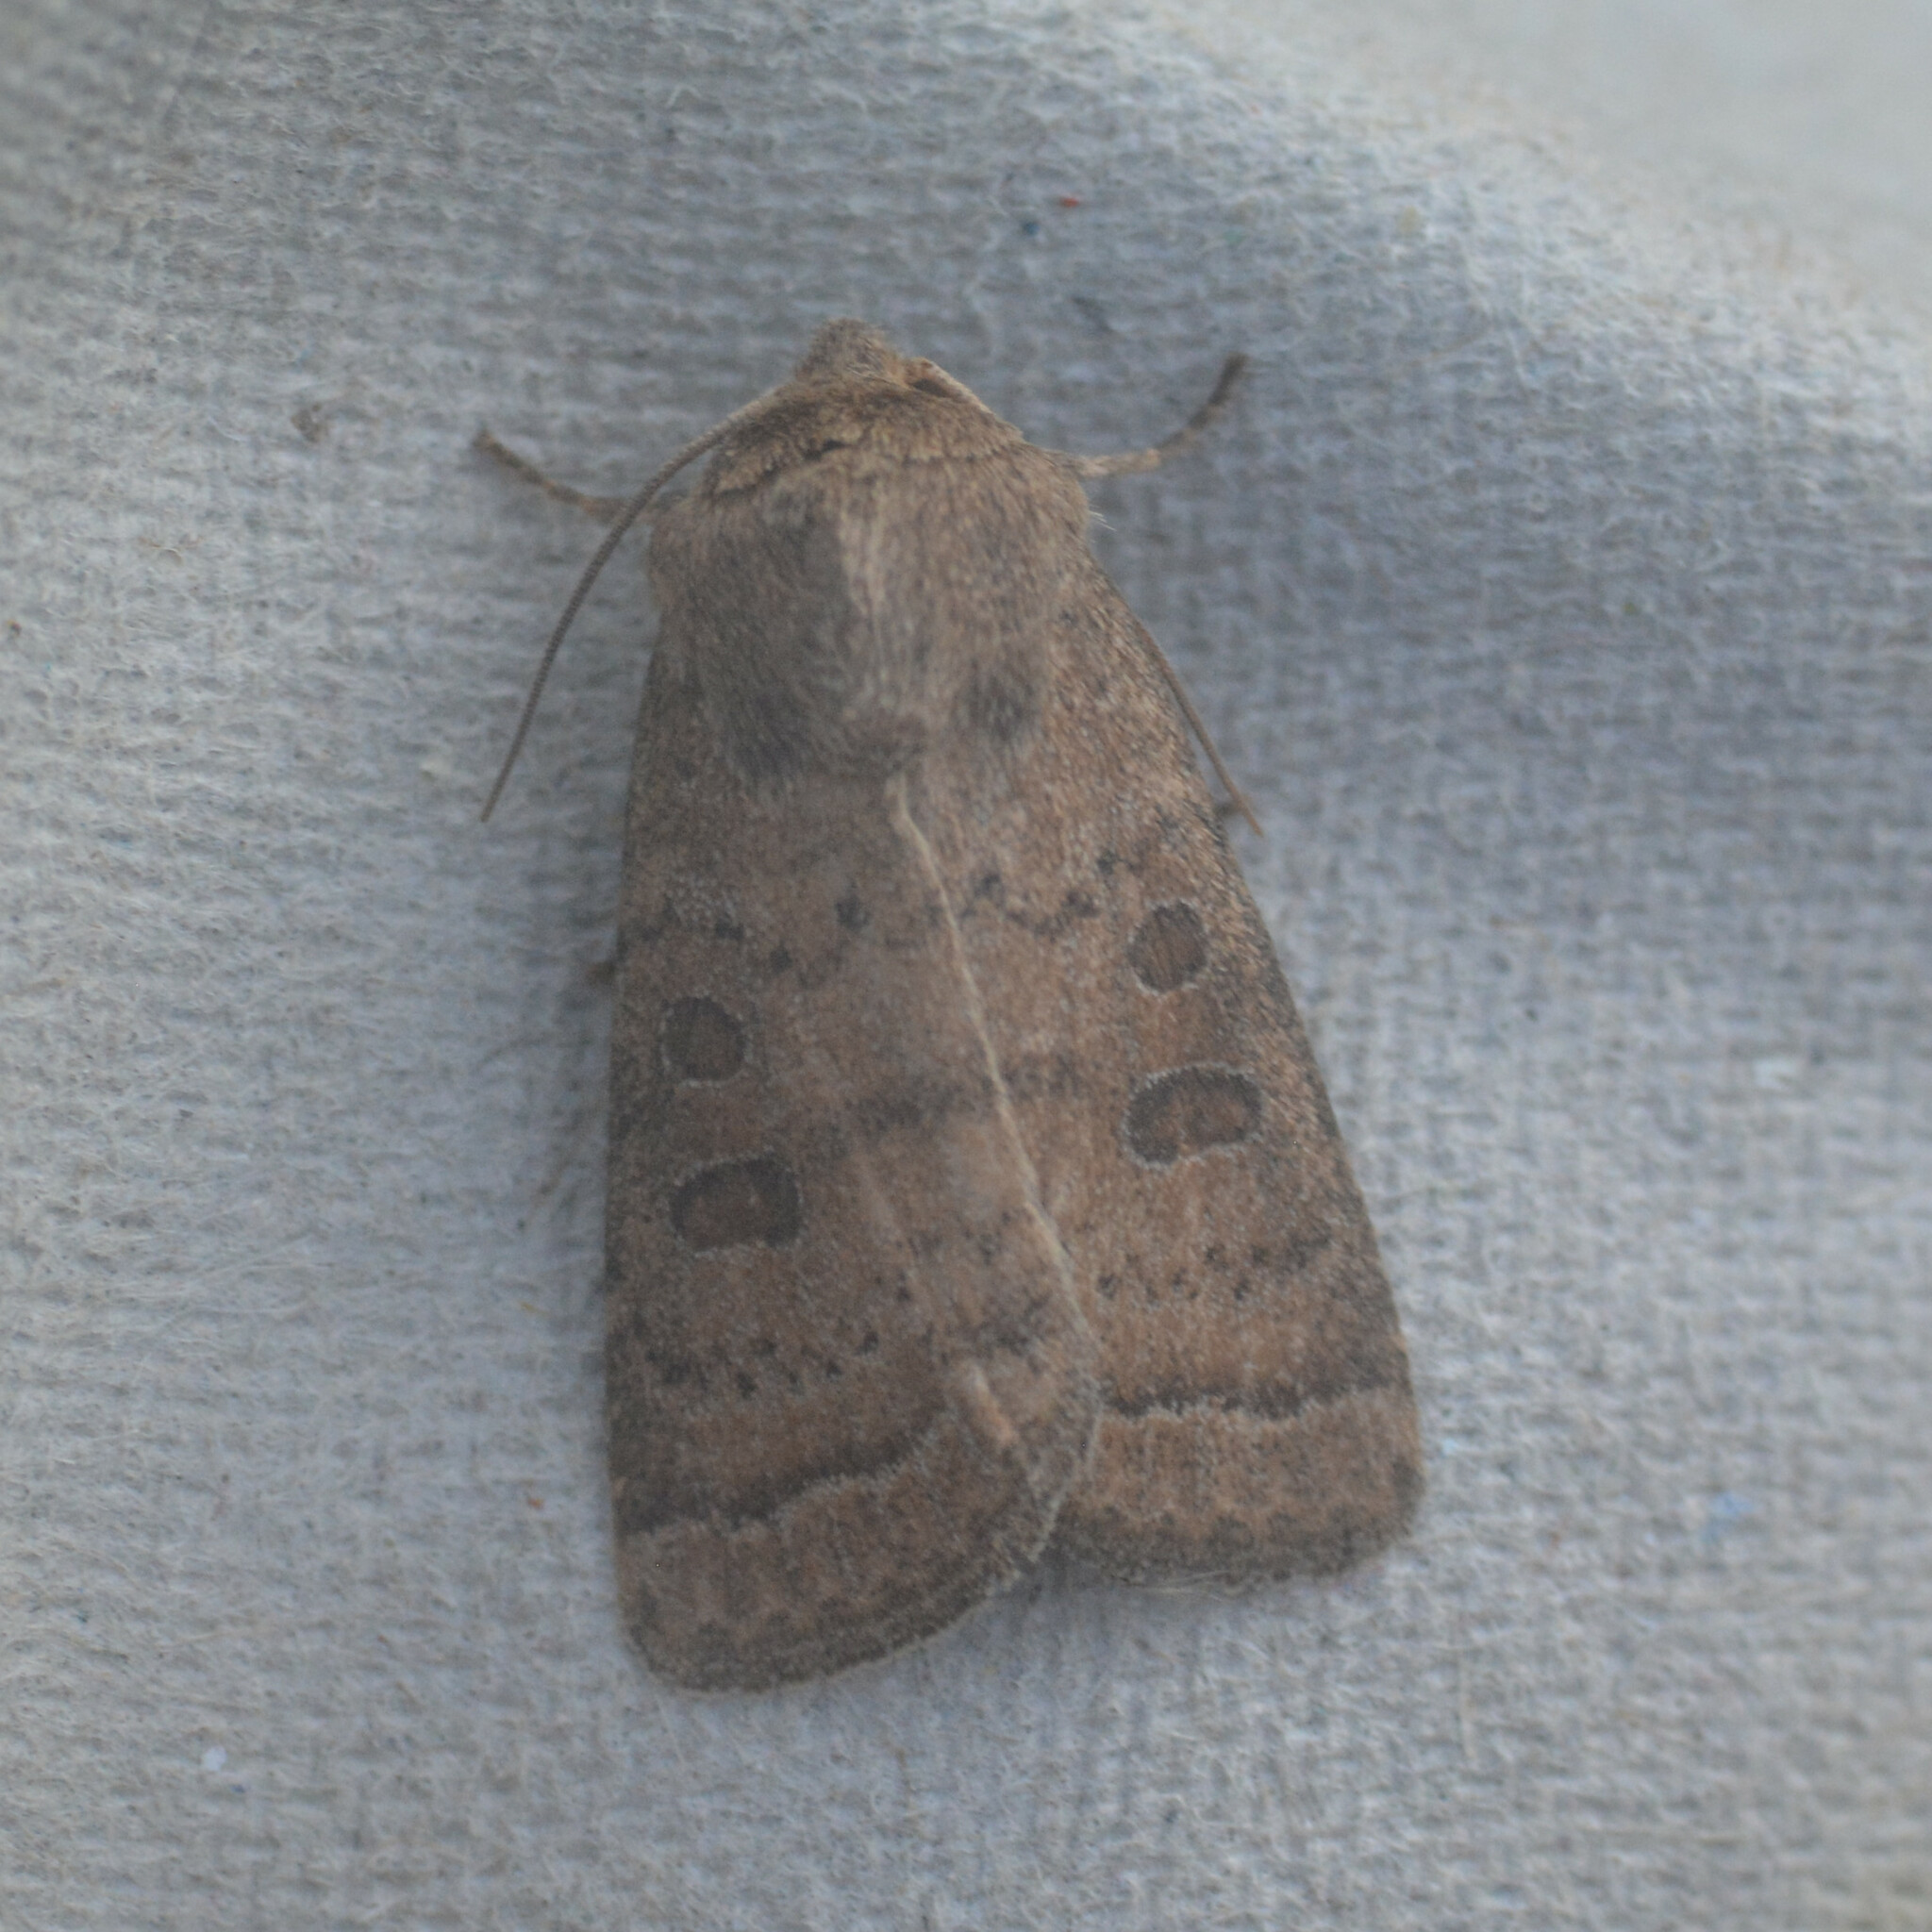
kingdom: Animalia
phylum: Arthropoda
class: Insecta
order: Lepidoptera
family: Noctuidae
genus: Hoplodrina
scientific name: Hoplodrina octogenaria
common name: Uncertain
